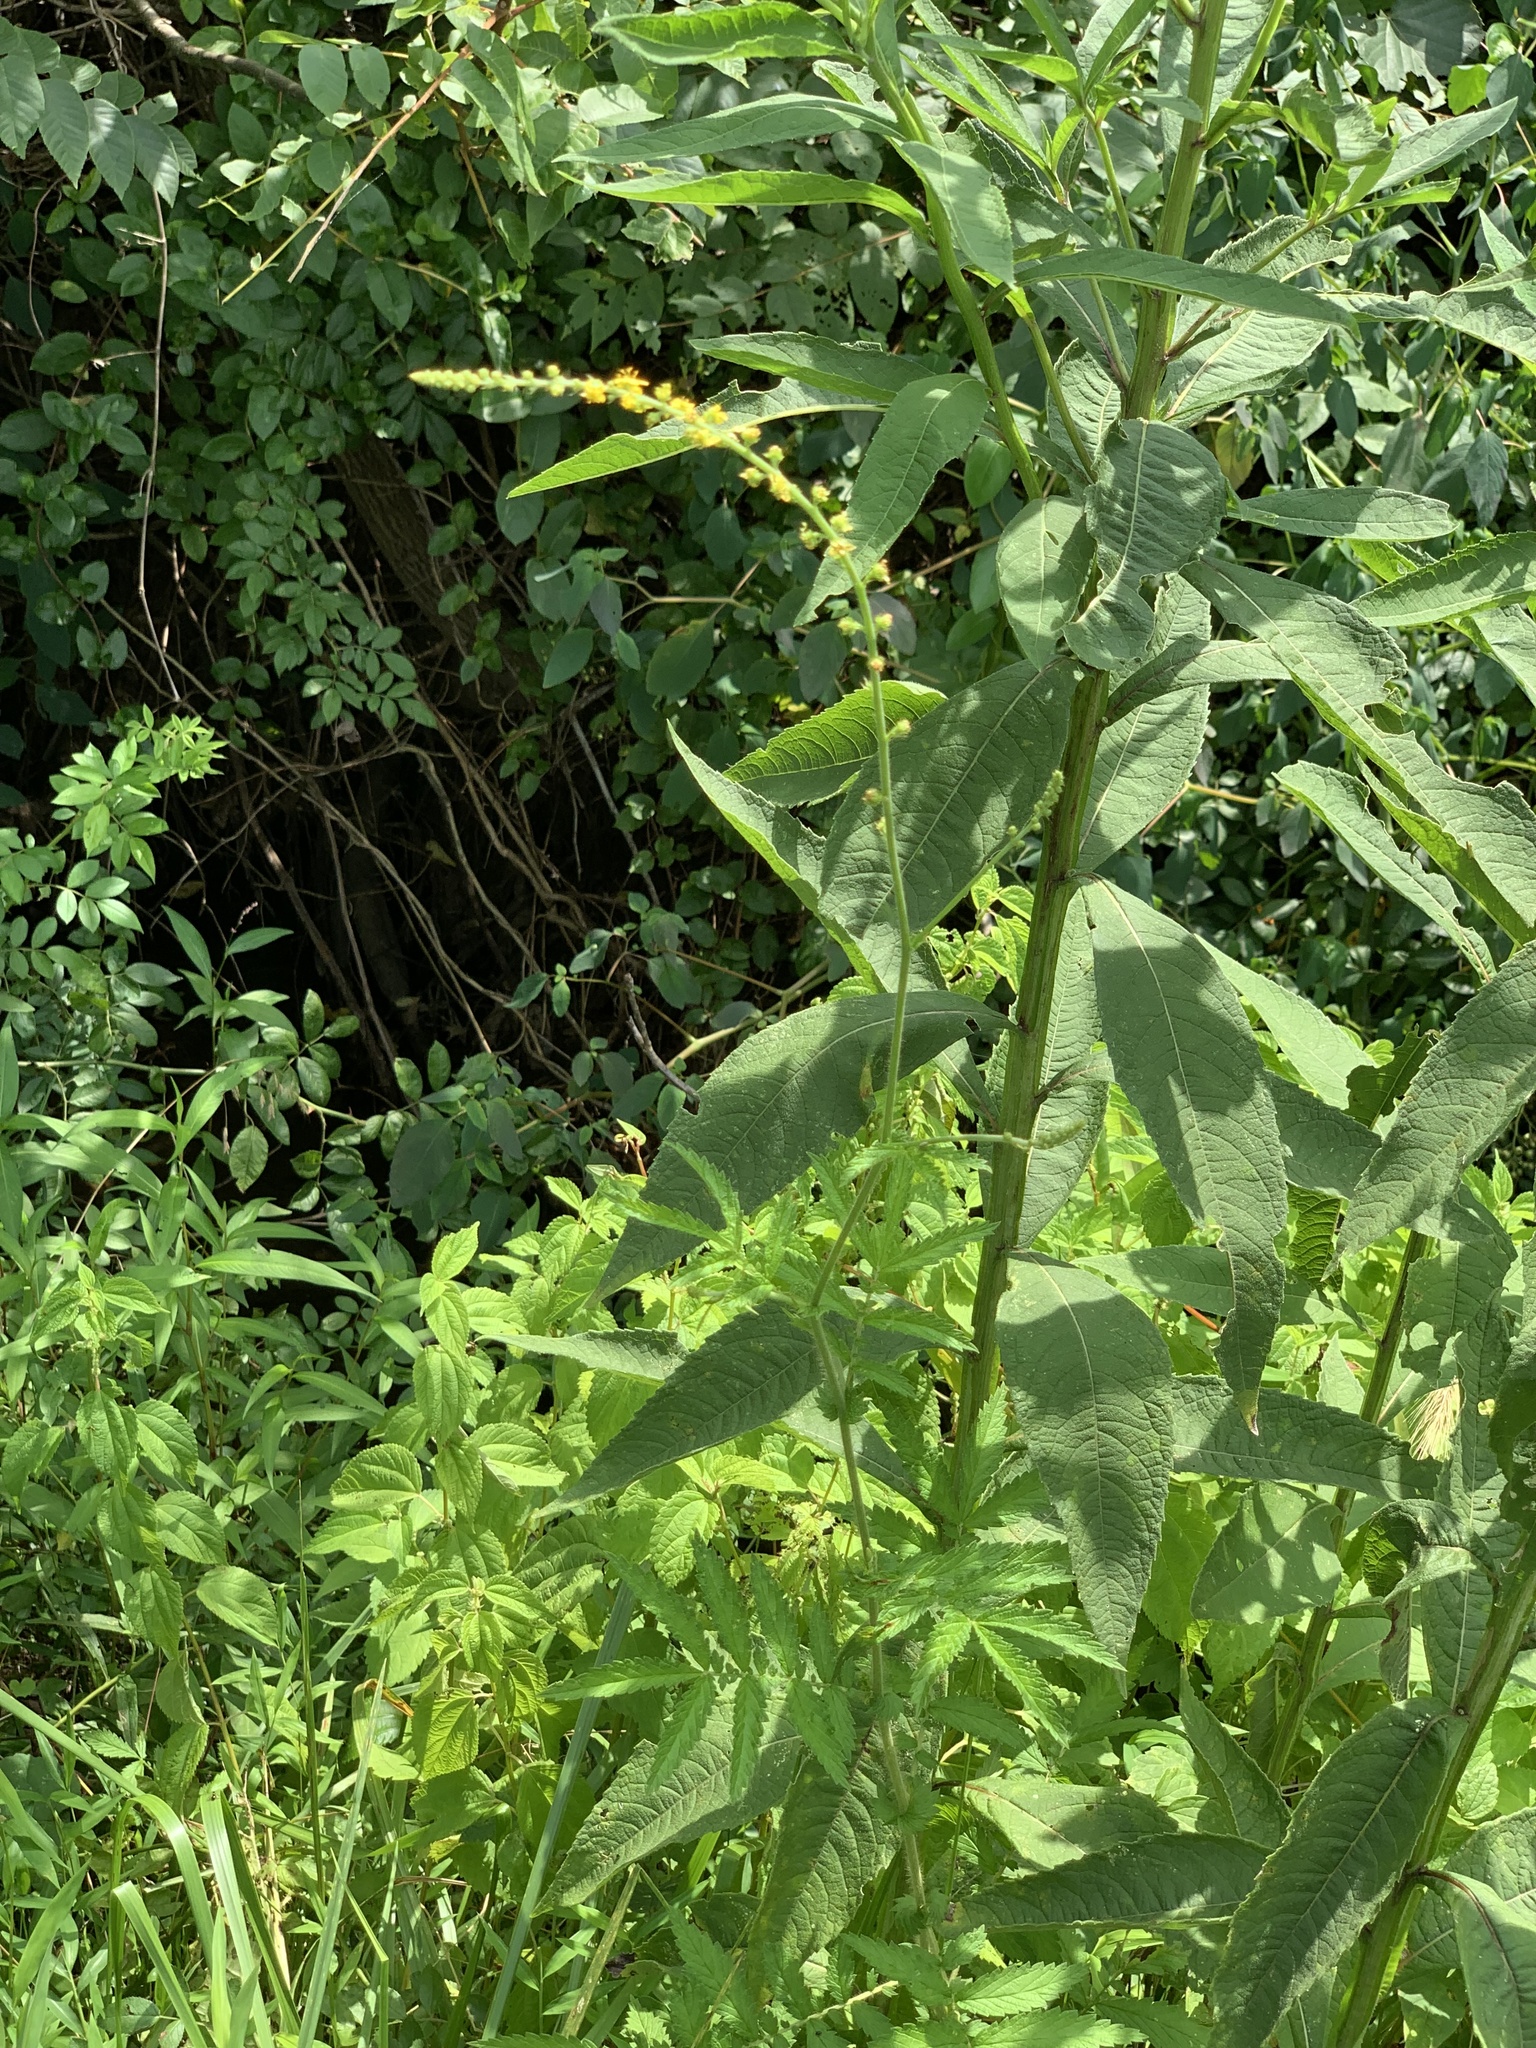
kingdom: Plantae
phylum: Tracheophyta
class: Magnoliopsida
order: Rosales
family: Rosaceae
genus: Agrimonia
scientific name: Agrimonia parviflora
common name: Harvest-lice
